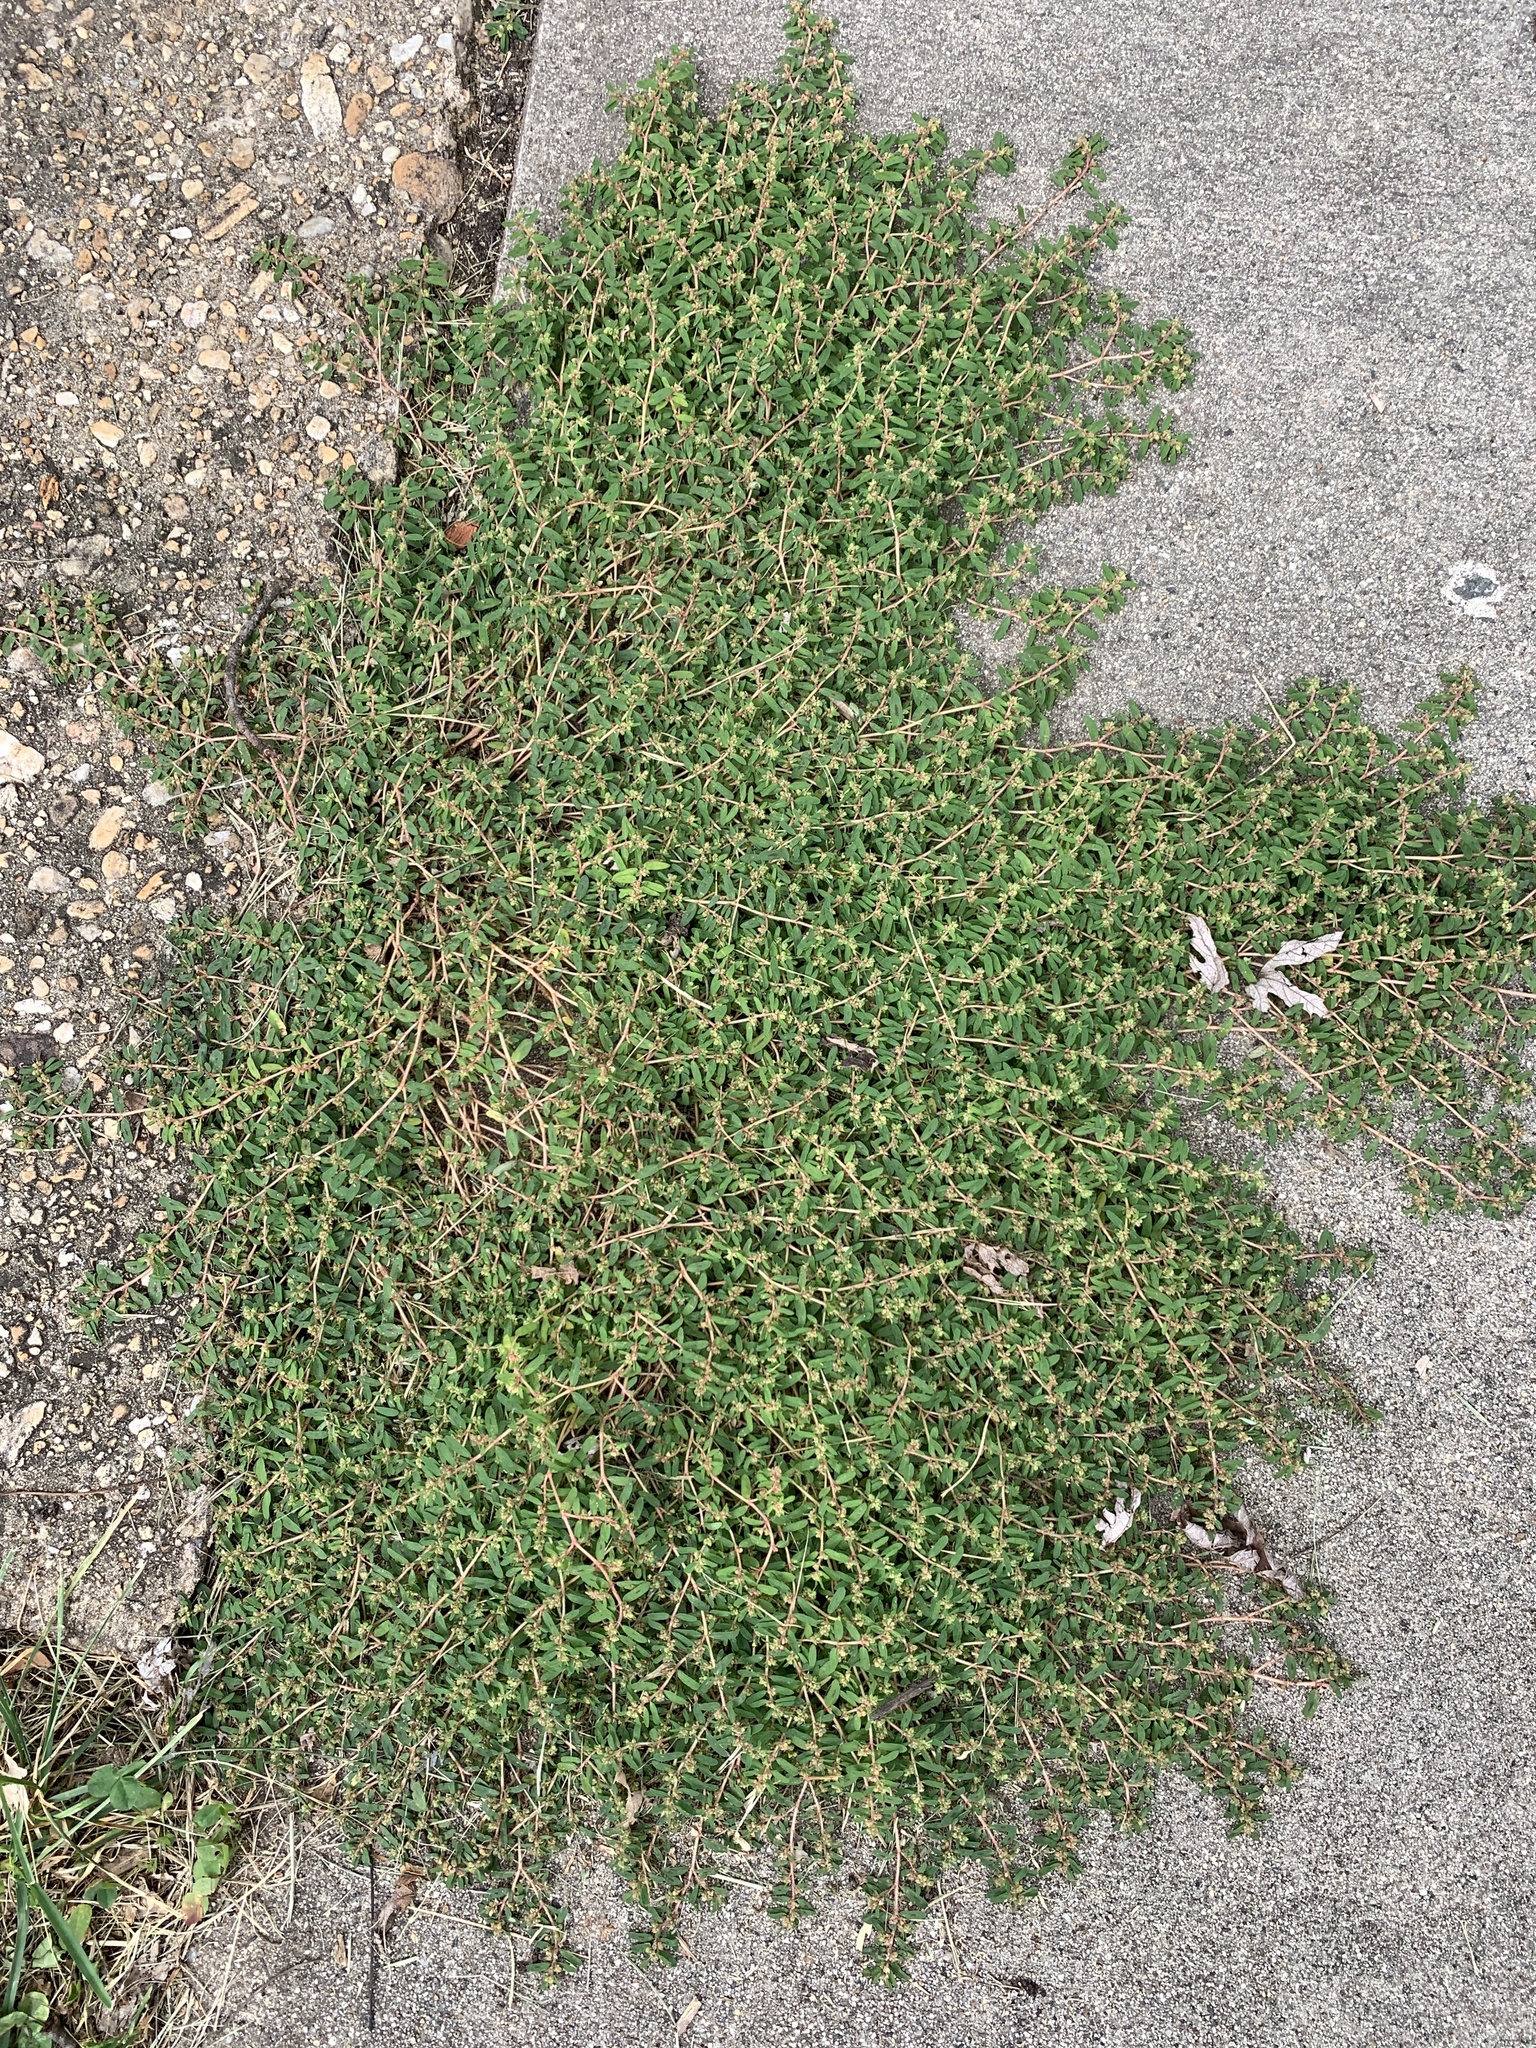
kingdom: Plantae
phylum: Tracheophyta
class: Magnoliopsida
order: Malpighiales
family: Euphorbiaceae
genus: Euphorbia
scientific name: Euphorbia maculata
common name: Spotted spurge
